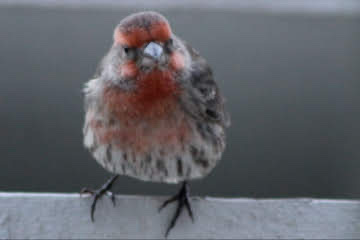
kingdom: Animalia
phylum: Chordata
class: Aves
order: Passeriformes
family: Fringillidae
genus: Haemorhous
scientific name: Haemorhous mexicanus
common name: House finch
